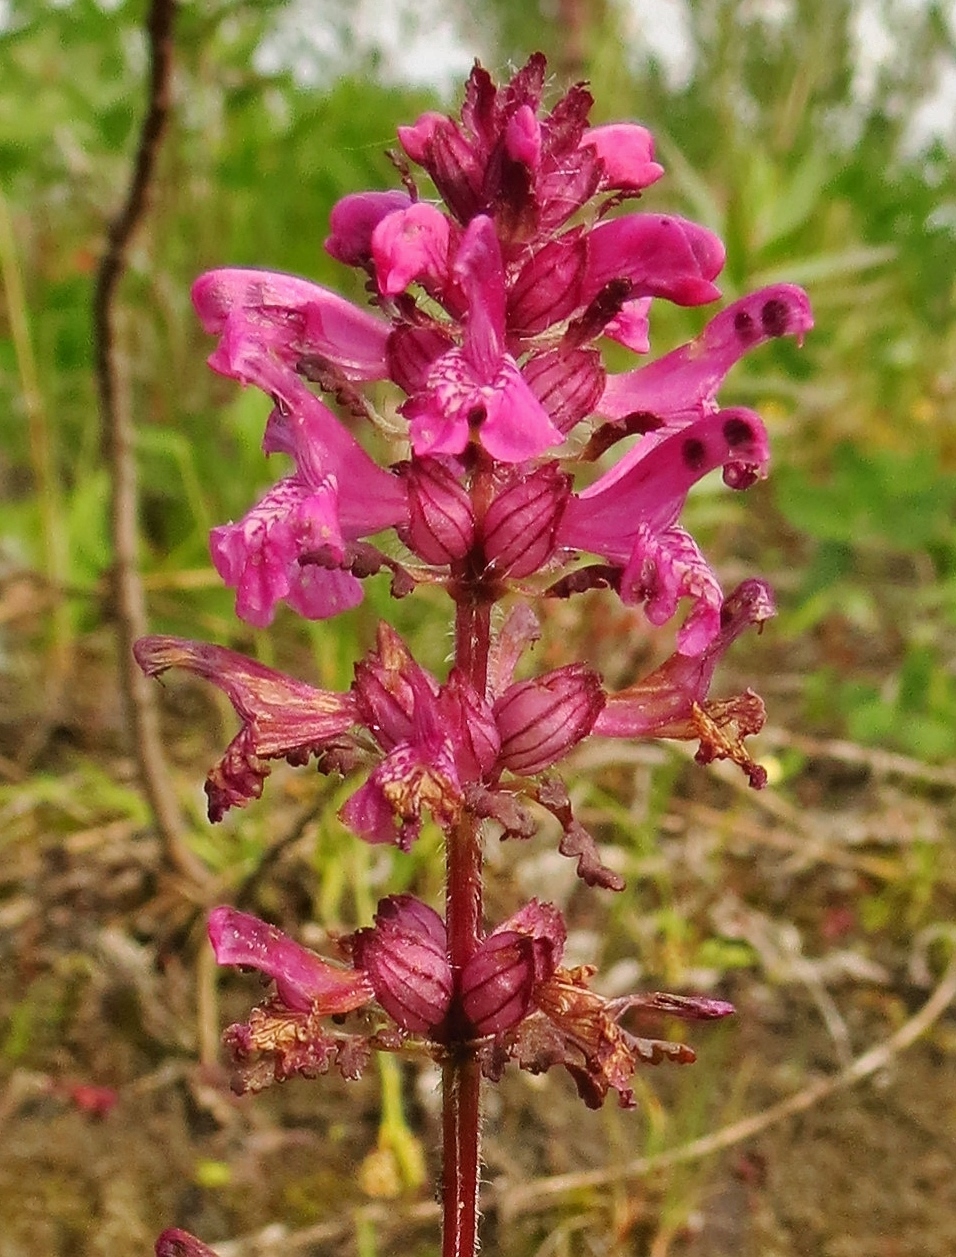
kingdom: Plantae
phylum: Tracheophyta
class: Magnoliopsida
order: Lamiales
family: Orobanchaceae
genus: Pedicularis
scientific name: Pedicularis verticillata
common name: Whorled lousewort
